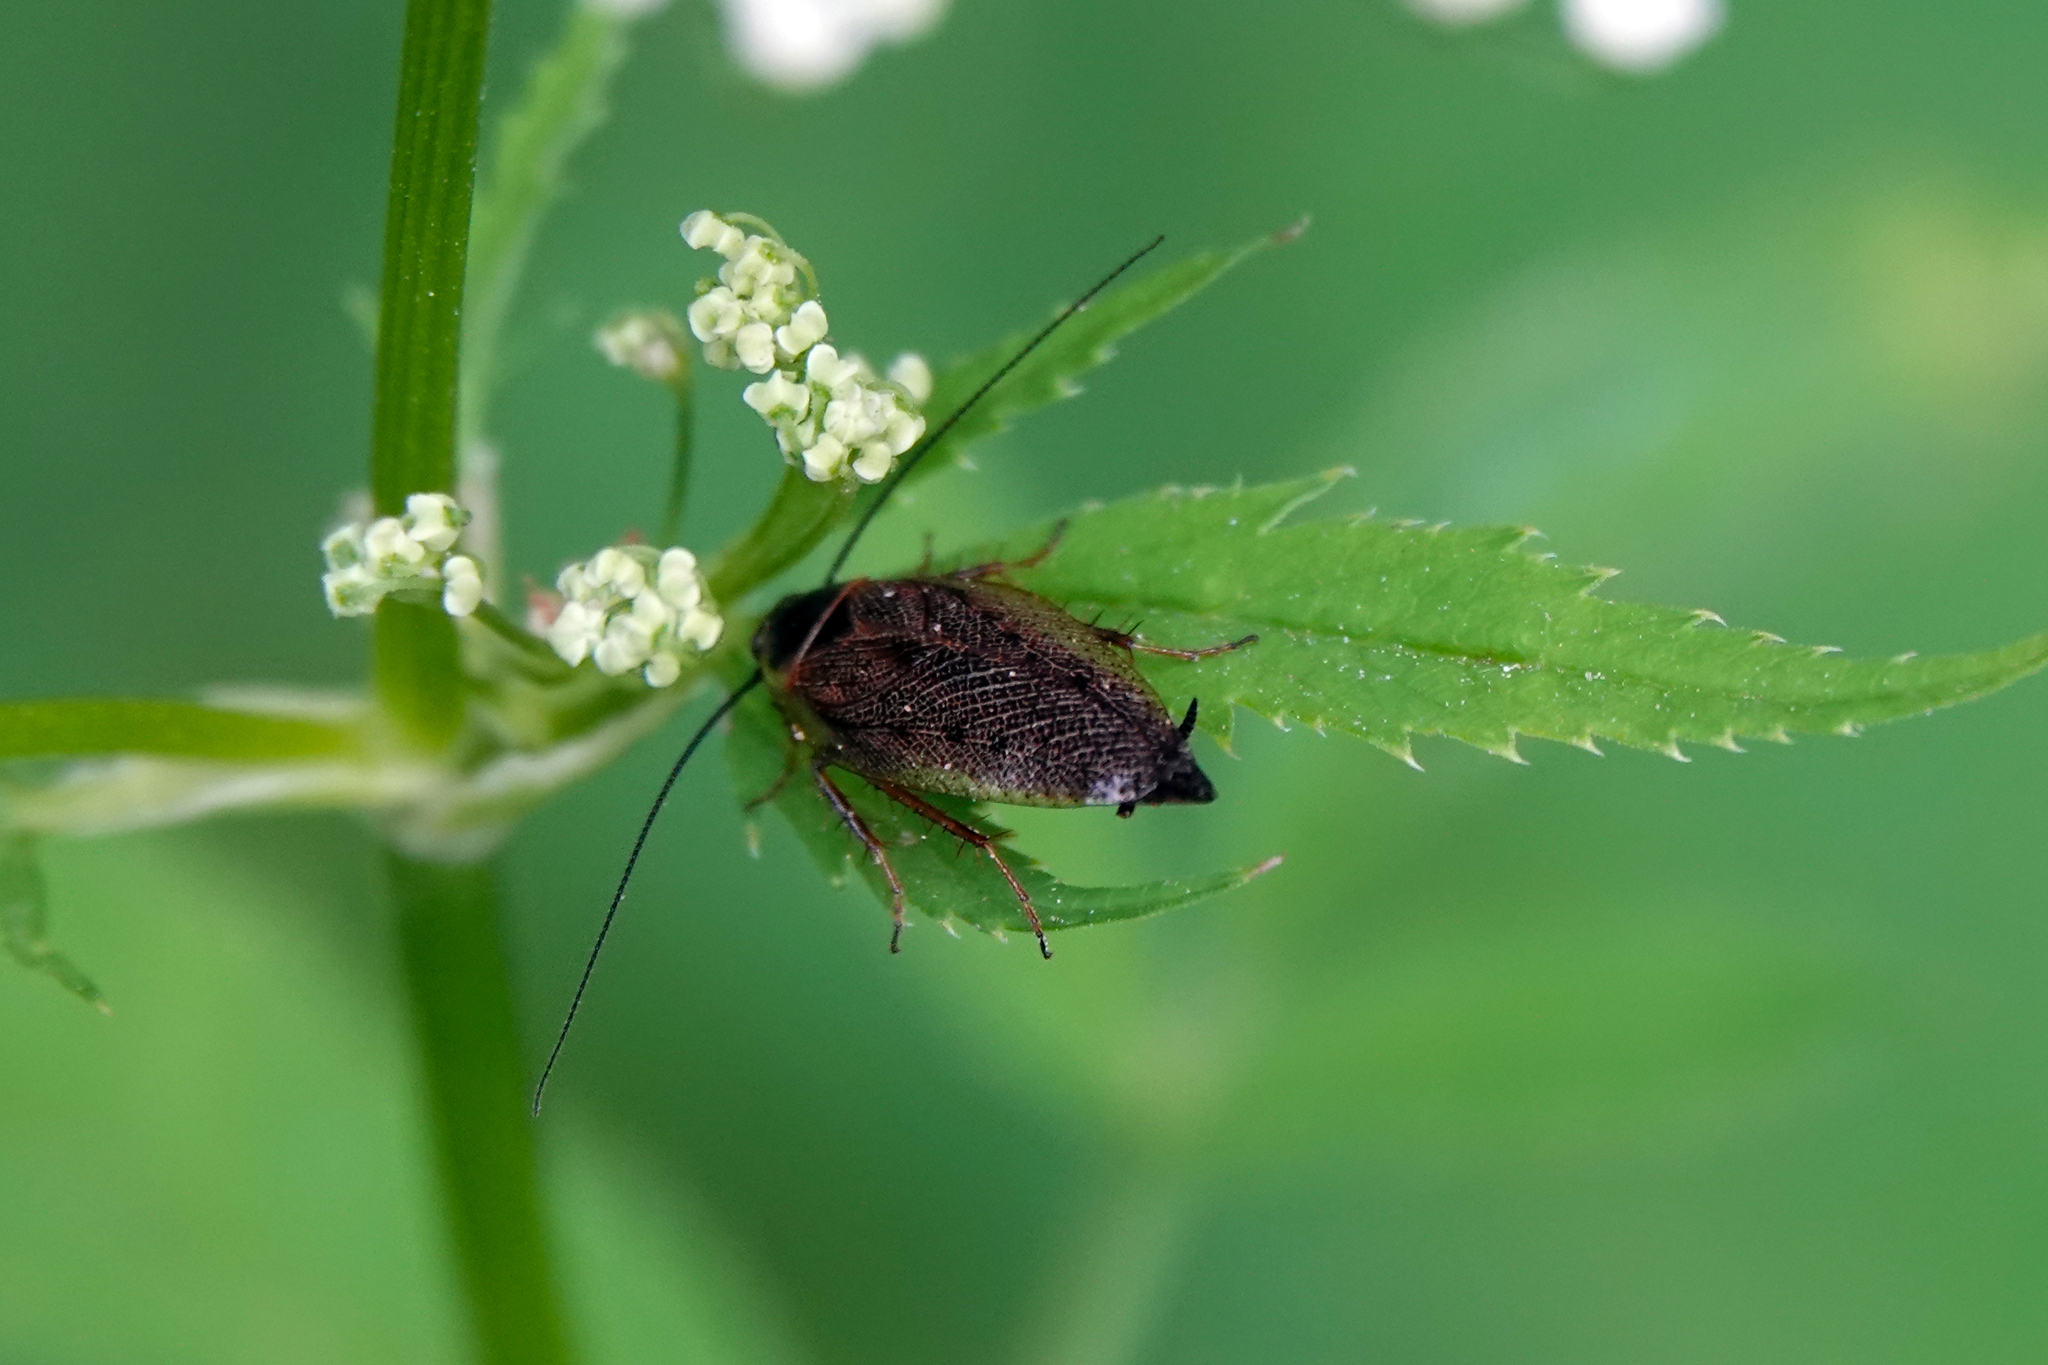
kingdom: Animalia
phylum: Arthropoda
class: Insecta
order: Blattodea
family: Ectobiidae
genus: Ectobius
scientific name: Ectobius lapponicus
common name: Dusky cockroach
